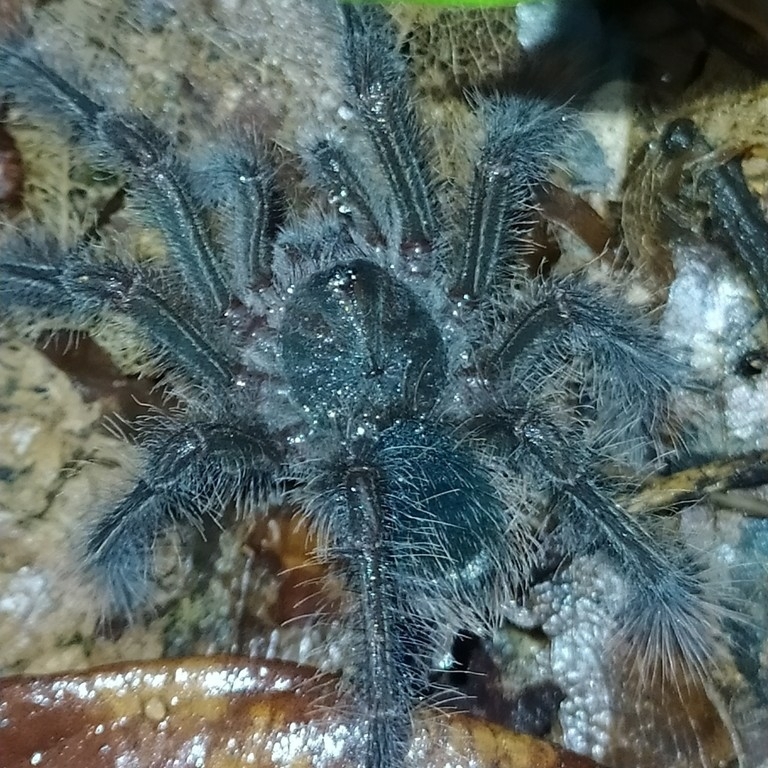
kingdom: Animalia
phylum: Arthropoda
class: Arachnida
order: Araneae
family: Theraphosidae
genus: Theraphosa
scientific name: Theraphosa blondi
